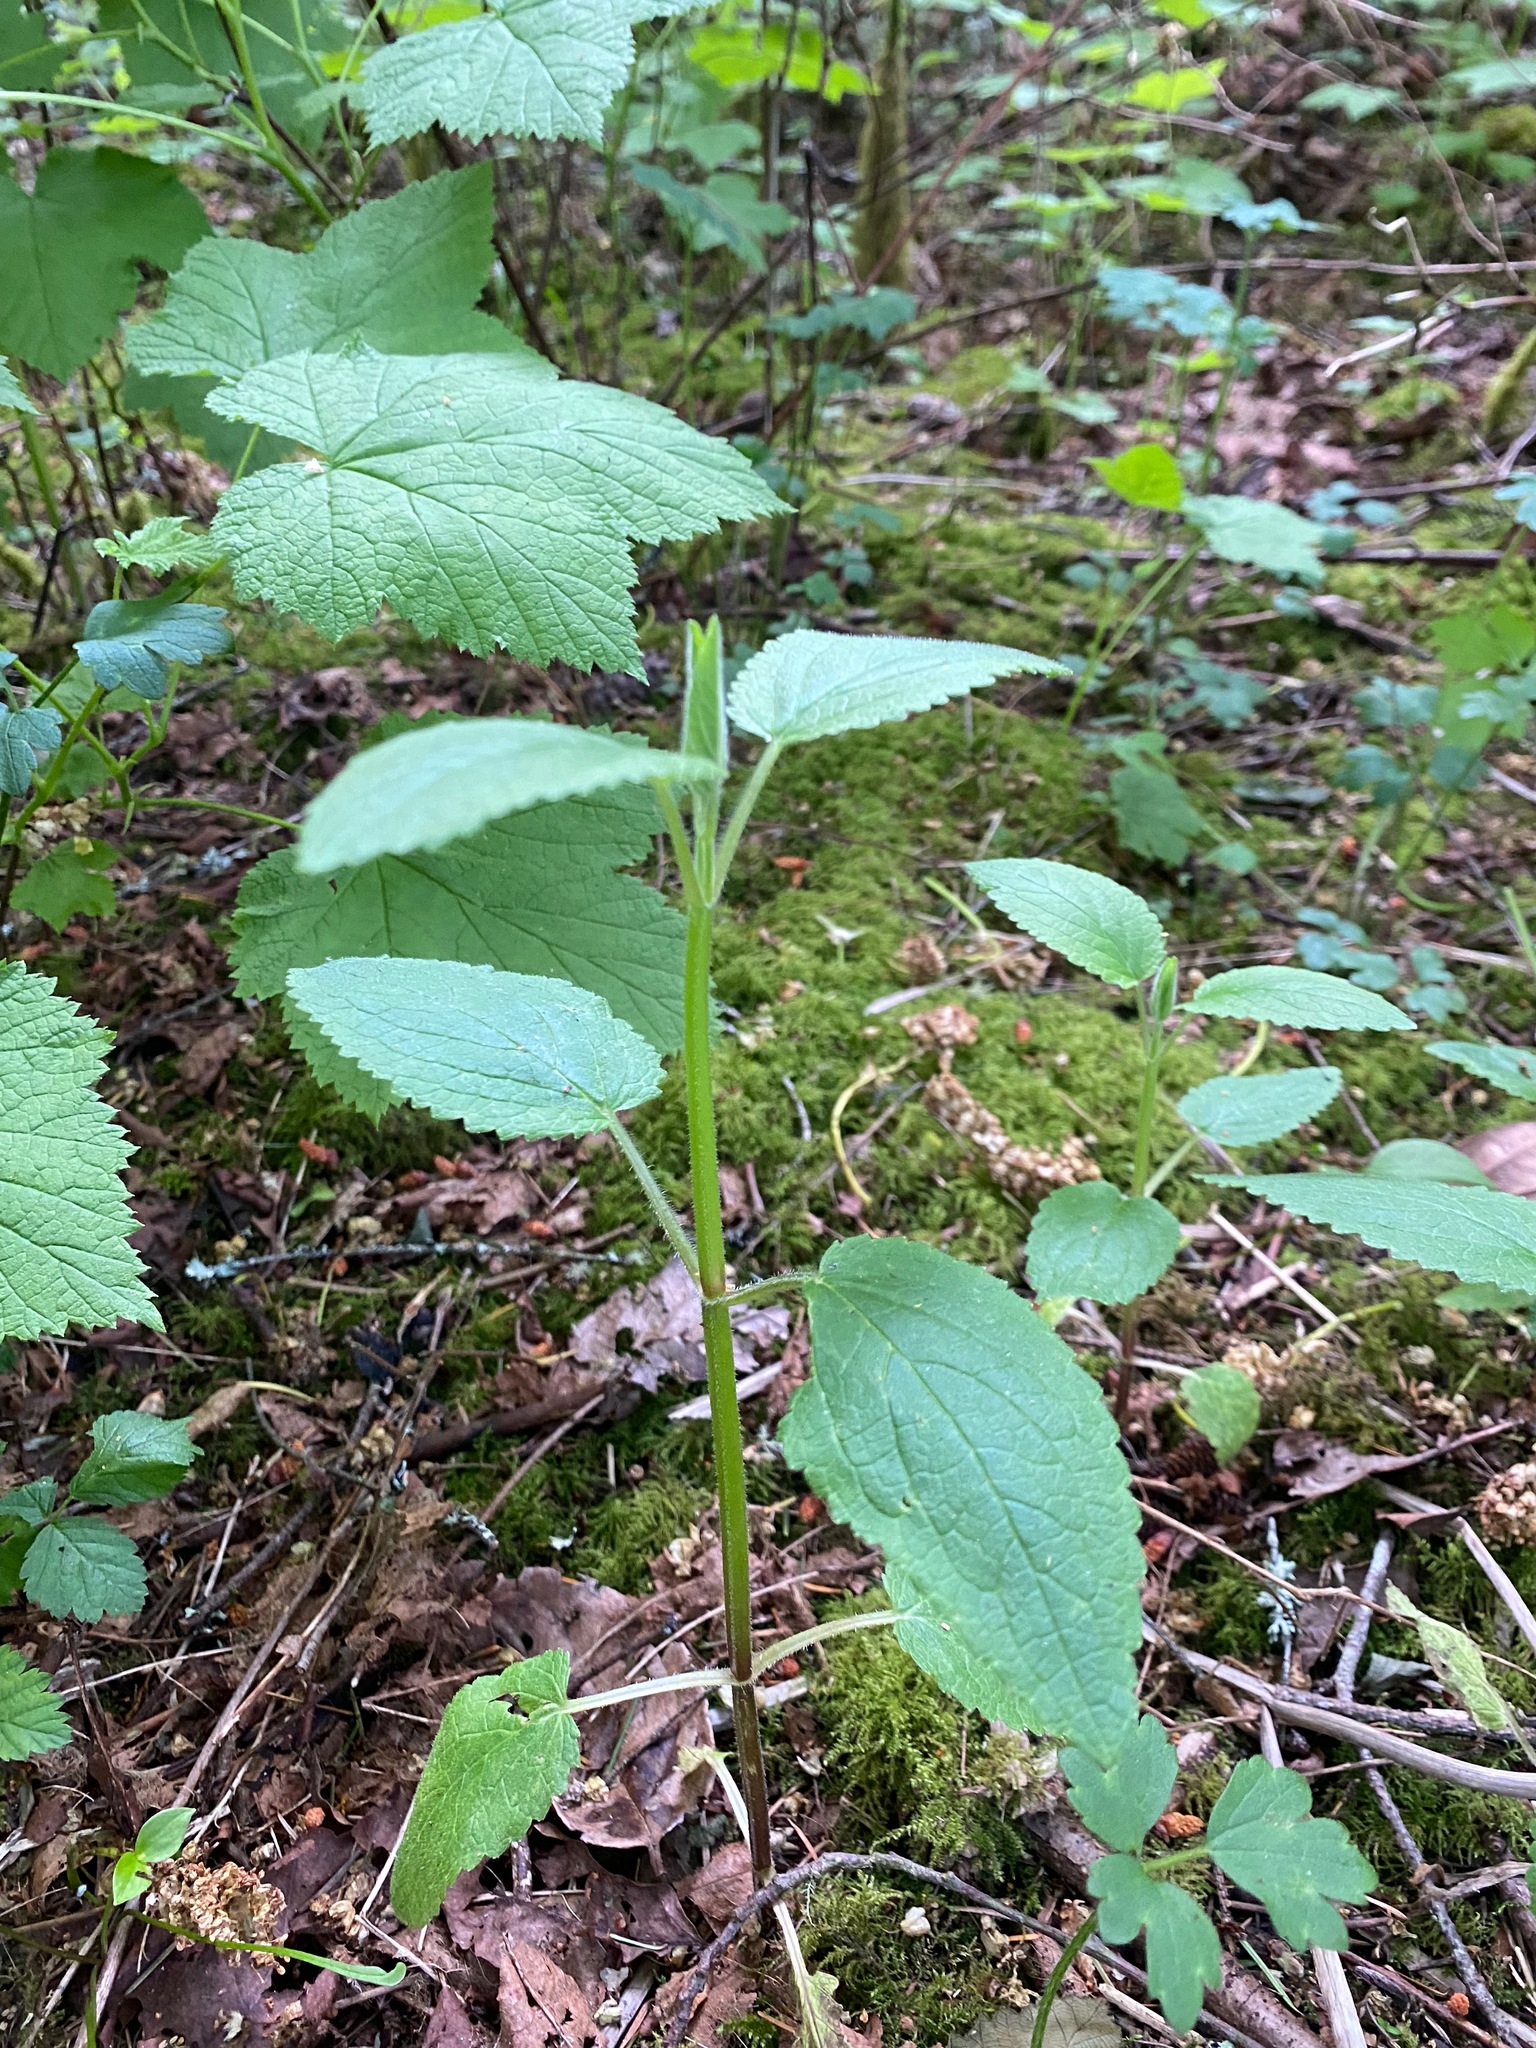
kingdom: Plantae
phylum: Tracheophyta
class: Magnoliopsida
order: Lamiales
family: Lamiaceae
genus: Stachys
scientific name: Stachys chamissonis
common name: Coastal hedge-nettle
